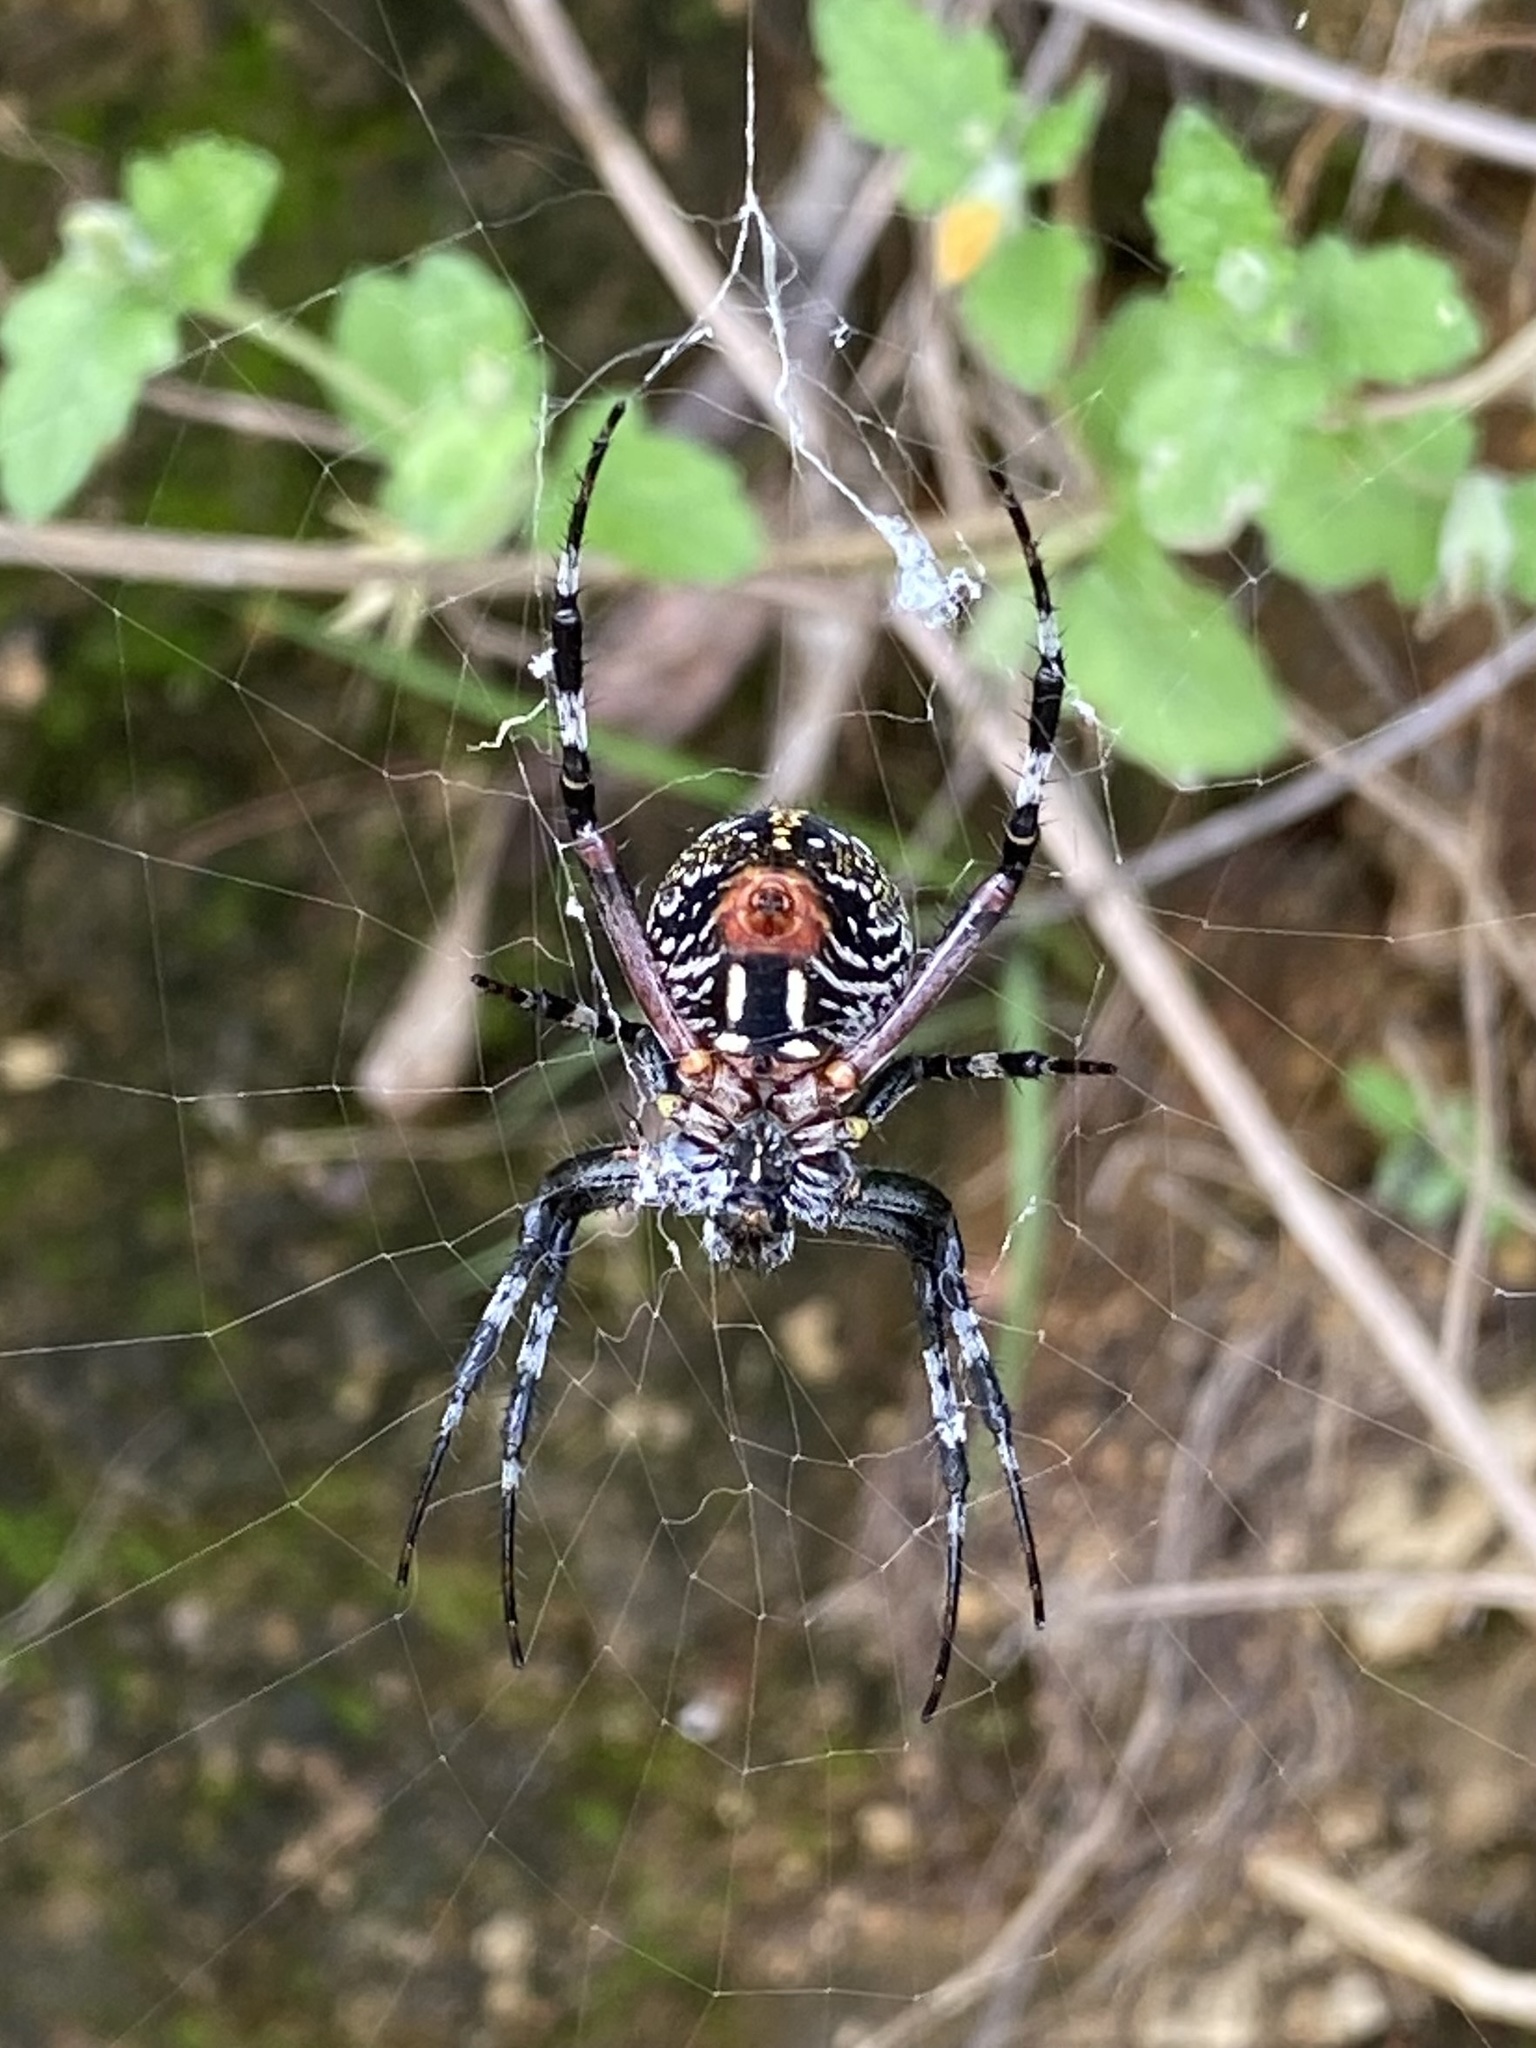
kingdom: Animalia
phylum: Arthropoda
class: Arachnida
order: Araneae
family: Araneidae
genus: Neoscona
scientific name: Neoscona oaxacensis
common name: Orb weavers
